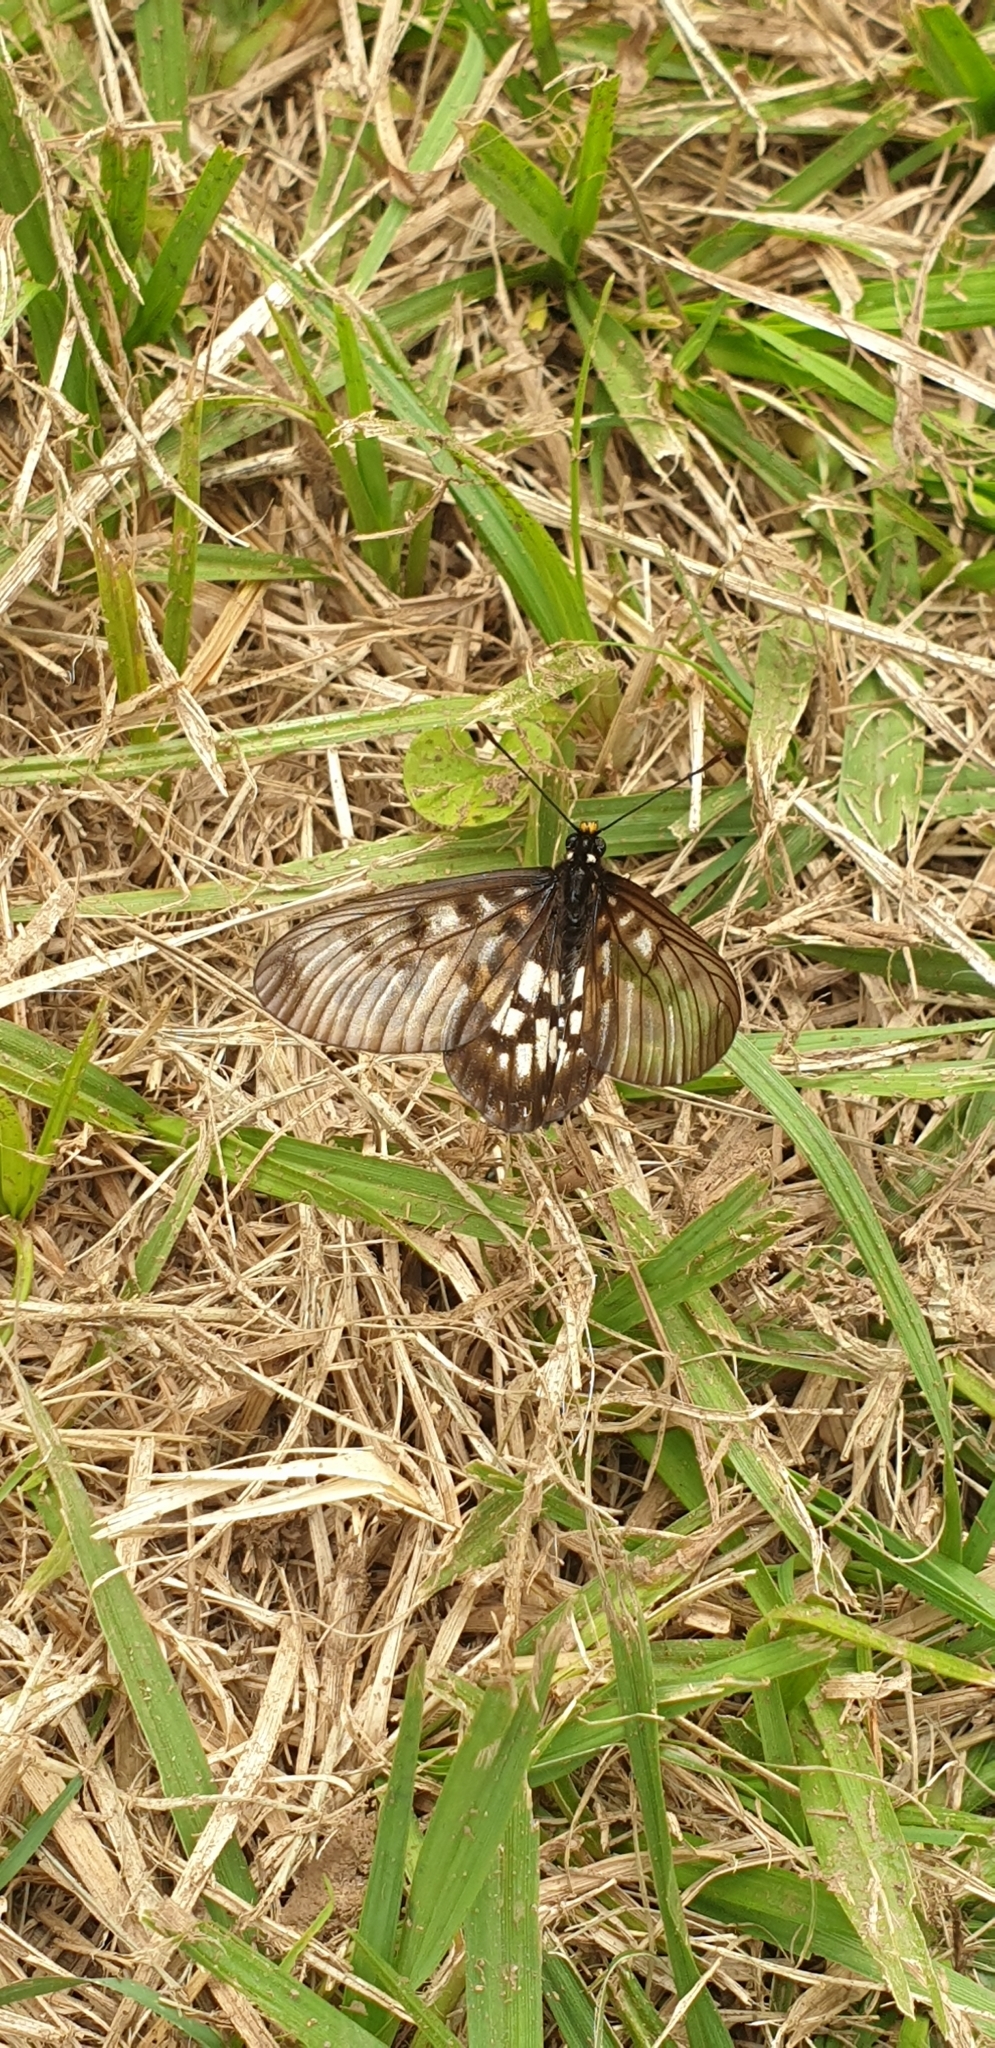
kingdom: Animalia
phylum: Arthropoda
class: Insecta
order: Lepidoptera
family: Nymphalidae
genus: Acraea
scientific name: Acraea andromacha
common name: Glasswing
